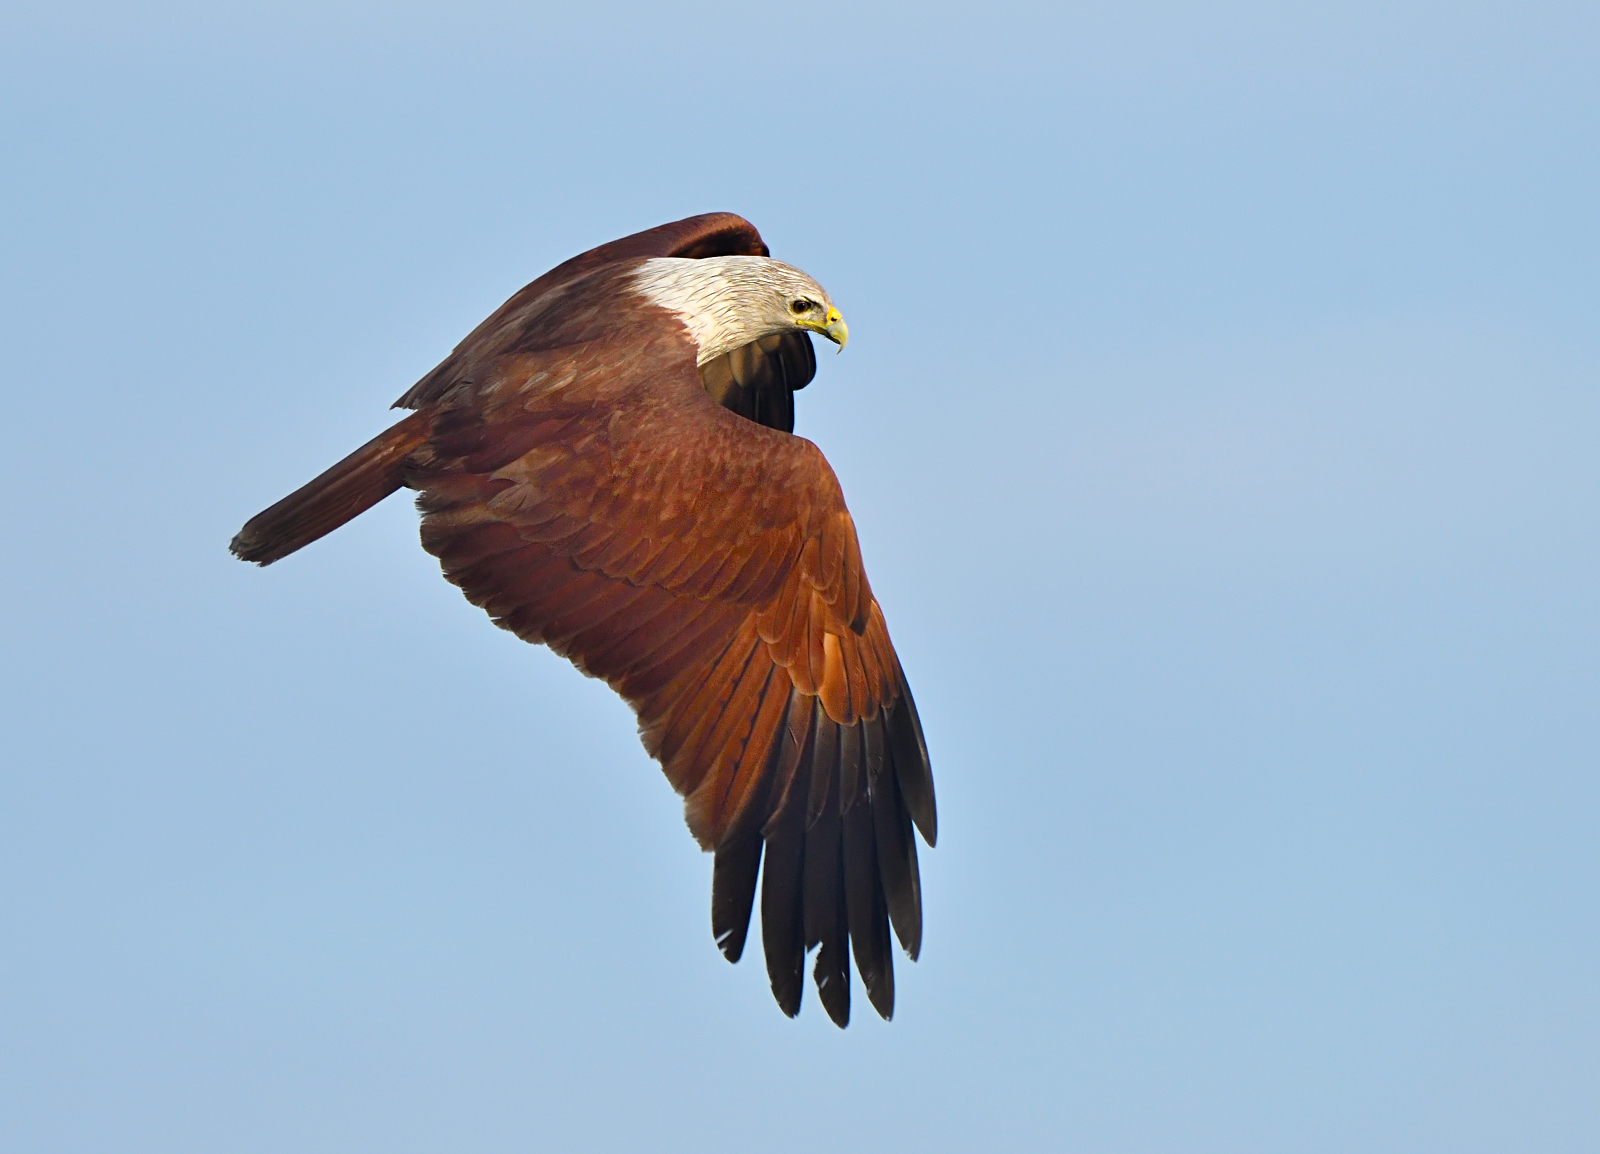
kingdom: Animalia
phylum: Chordata
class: Aves
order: Accipitriformes
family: Accipitridae
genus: Haliastur
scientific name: Haliastur indus
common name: Brahminy kite
